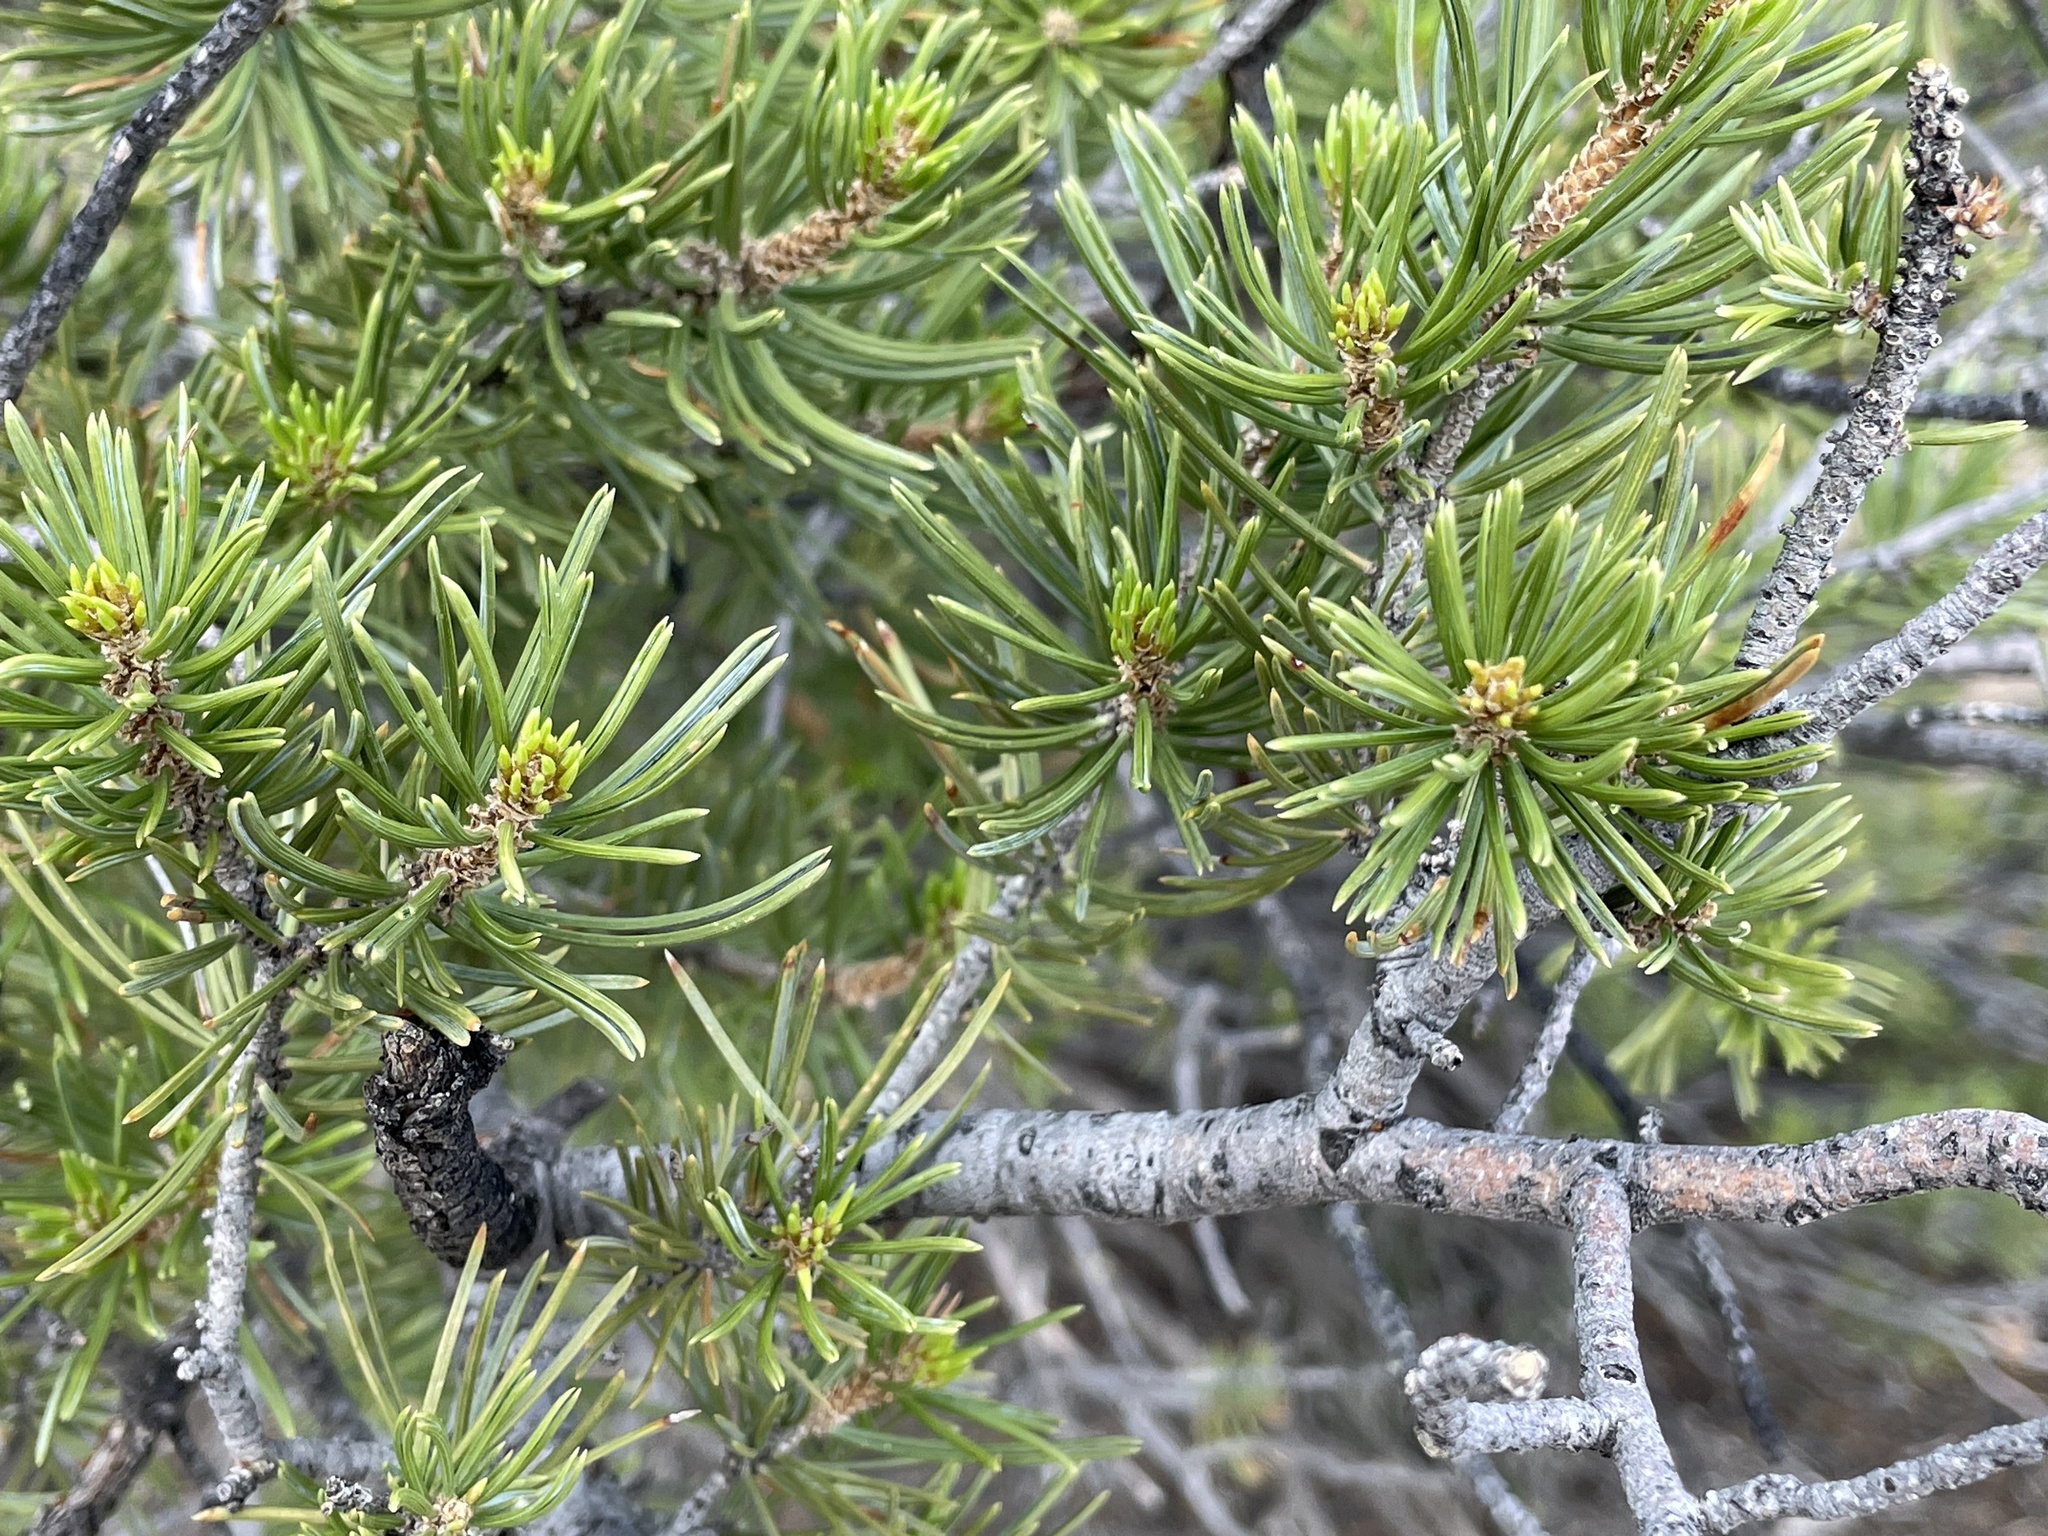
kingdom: Plantae
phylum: Tracheophyta
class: Pinopsida
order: Pinales
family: Pinaceae
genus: Pinus
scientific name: Pinus edulis
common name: Colorado pinyon
